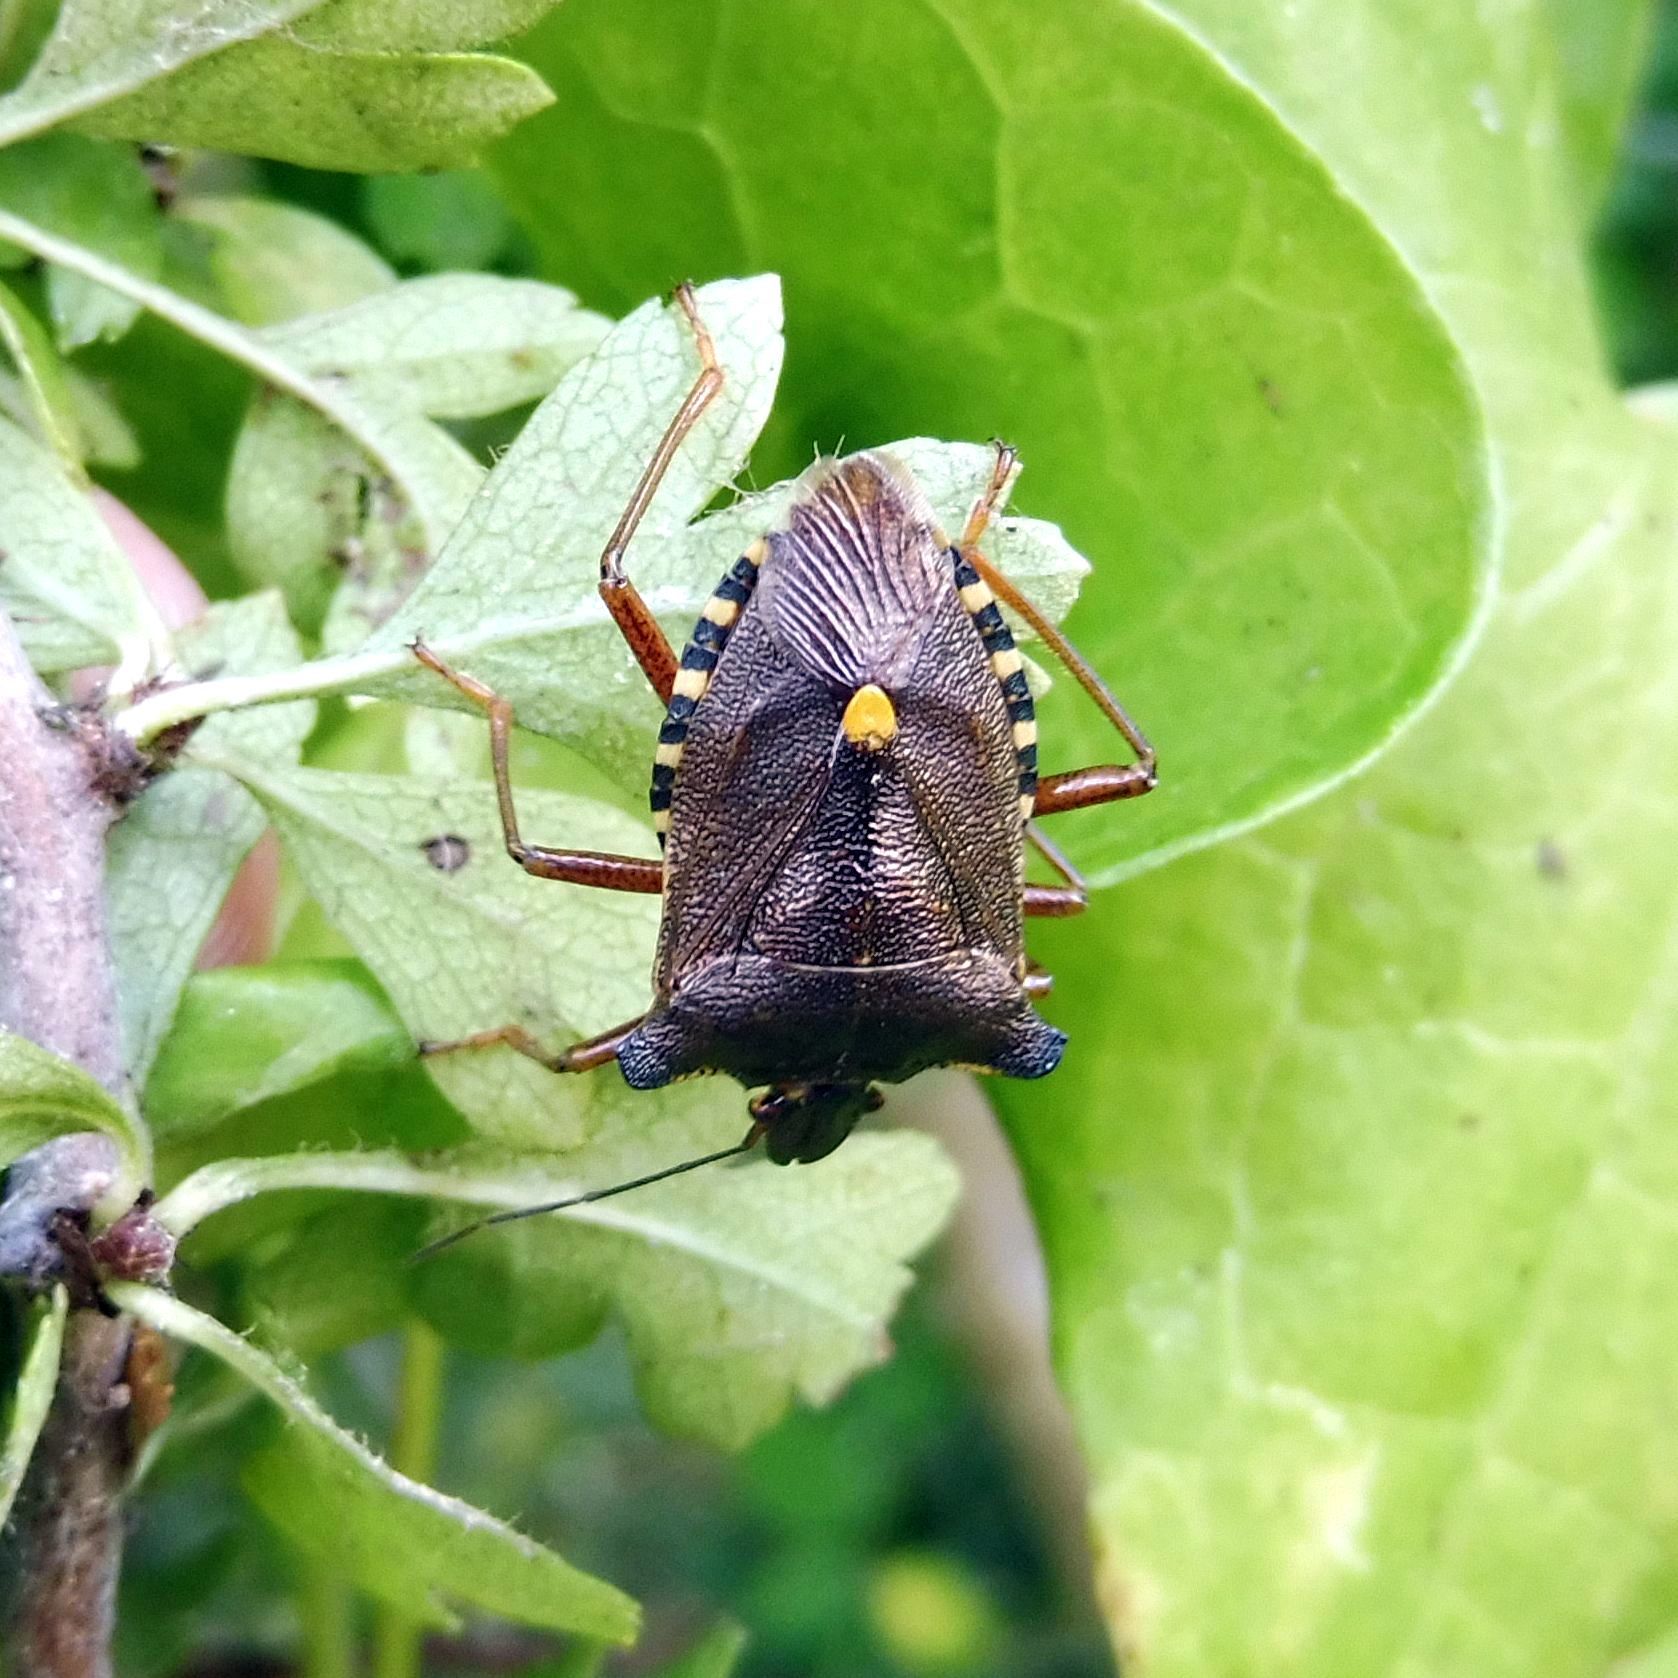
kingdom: Animalia
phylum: Arthropoda
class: Insecta
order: Hemiptera
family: Pentatomidae
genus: Pentatoma
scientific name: Pentatoma rufipes
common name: Forest bug
